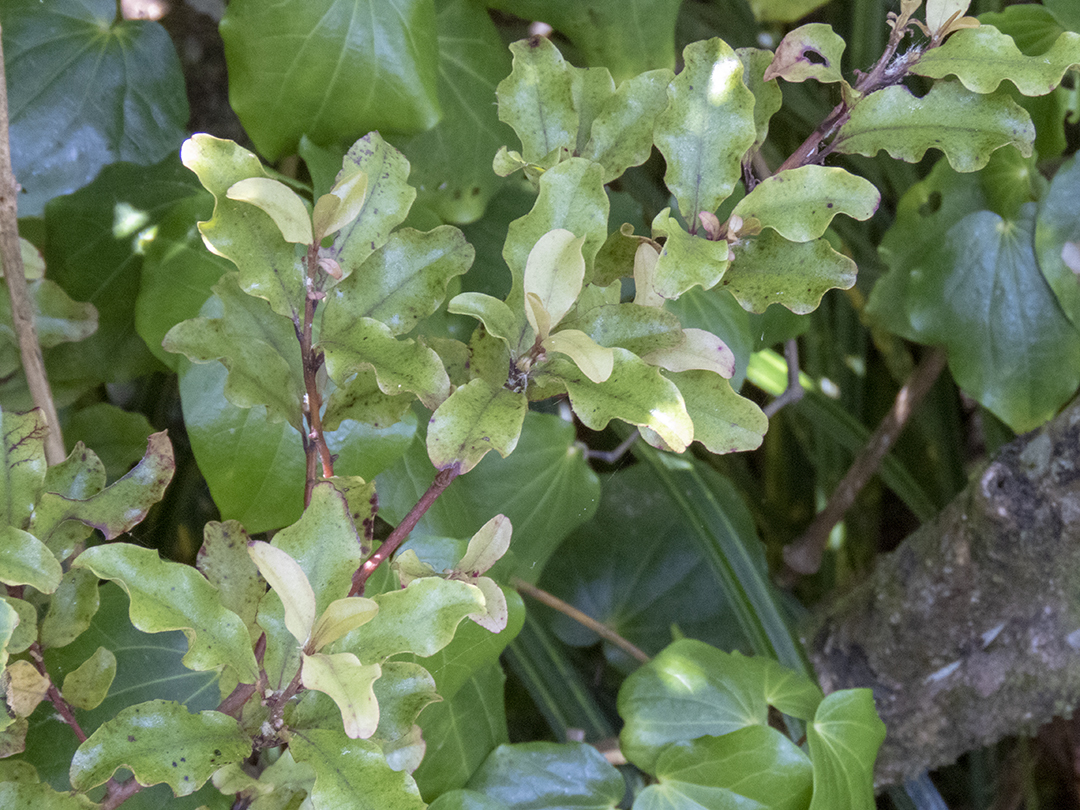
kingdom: Plantae
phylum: Tracheophyta
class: Magnoliopsida
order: Ericales
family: Primulaceae
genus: Myrsine
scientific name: Myrsine australis
